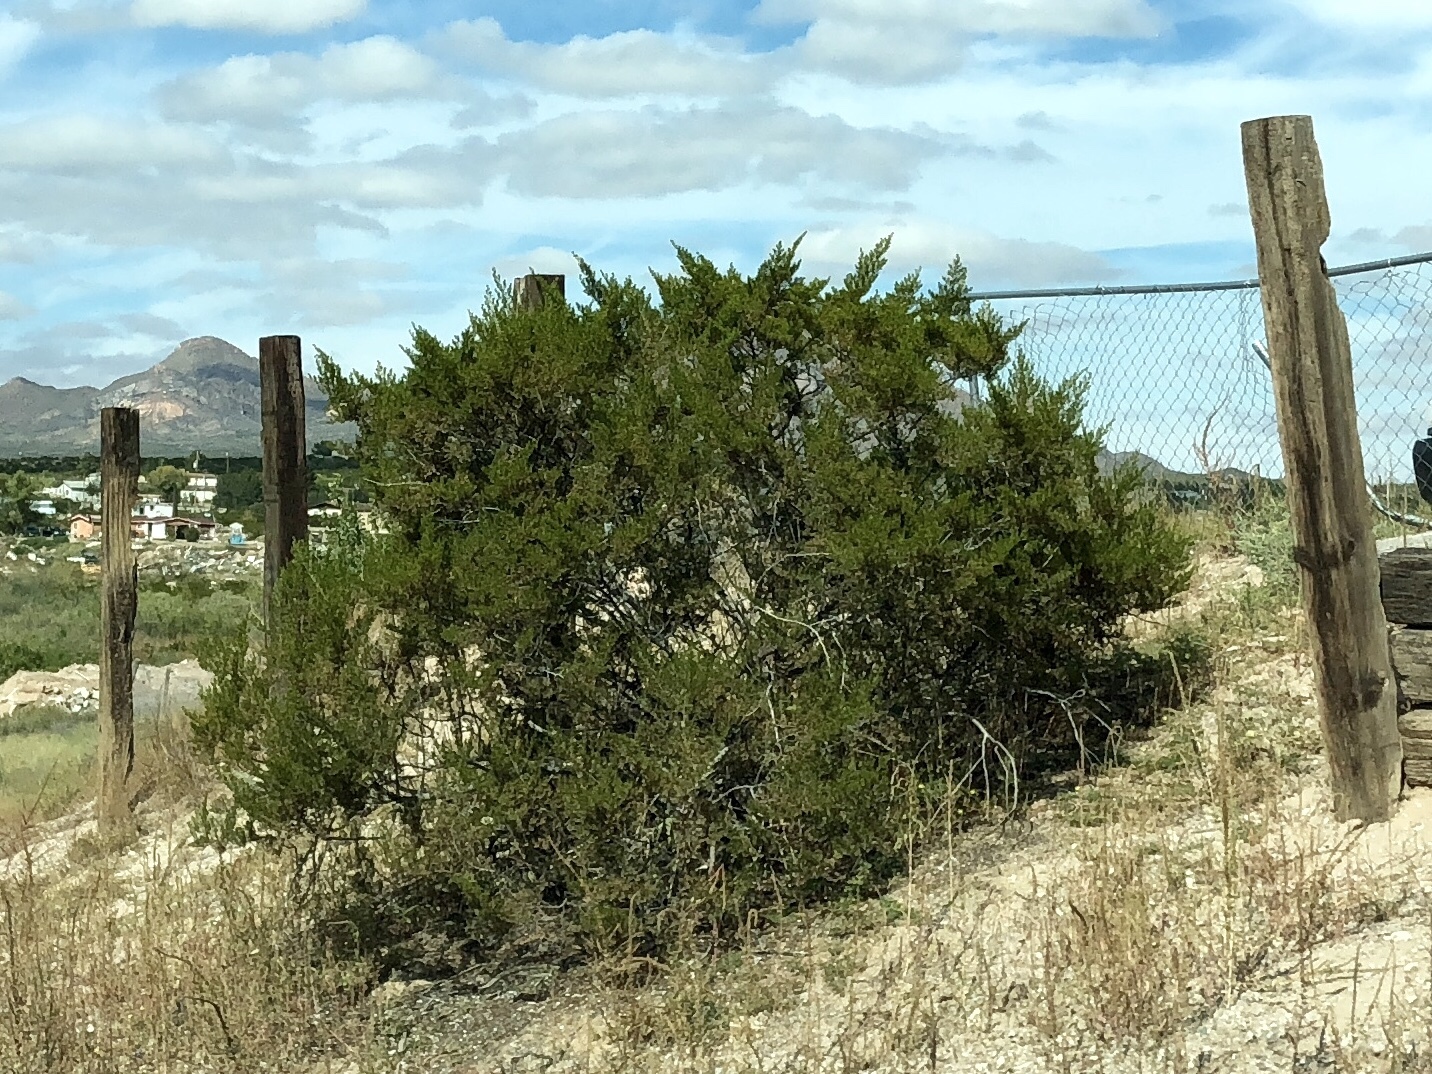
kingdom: Plantae
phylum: Tracheophyta
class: Magnoliopsida
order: Zygophyllales
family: Zygophyllaceae
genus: Larrea
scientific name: Larrea tridentata
